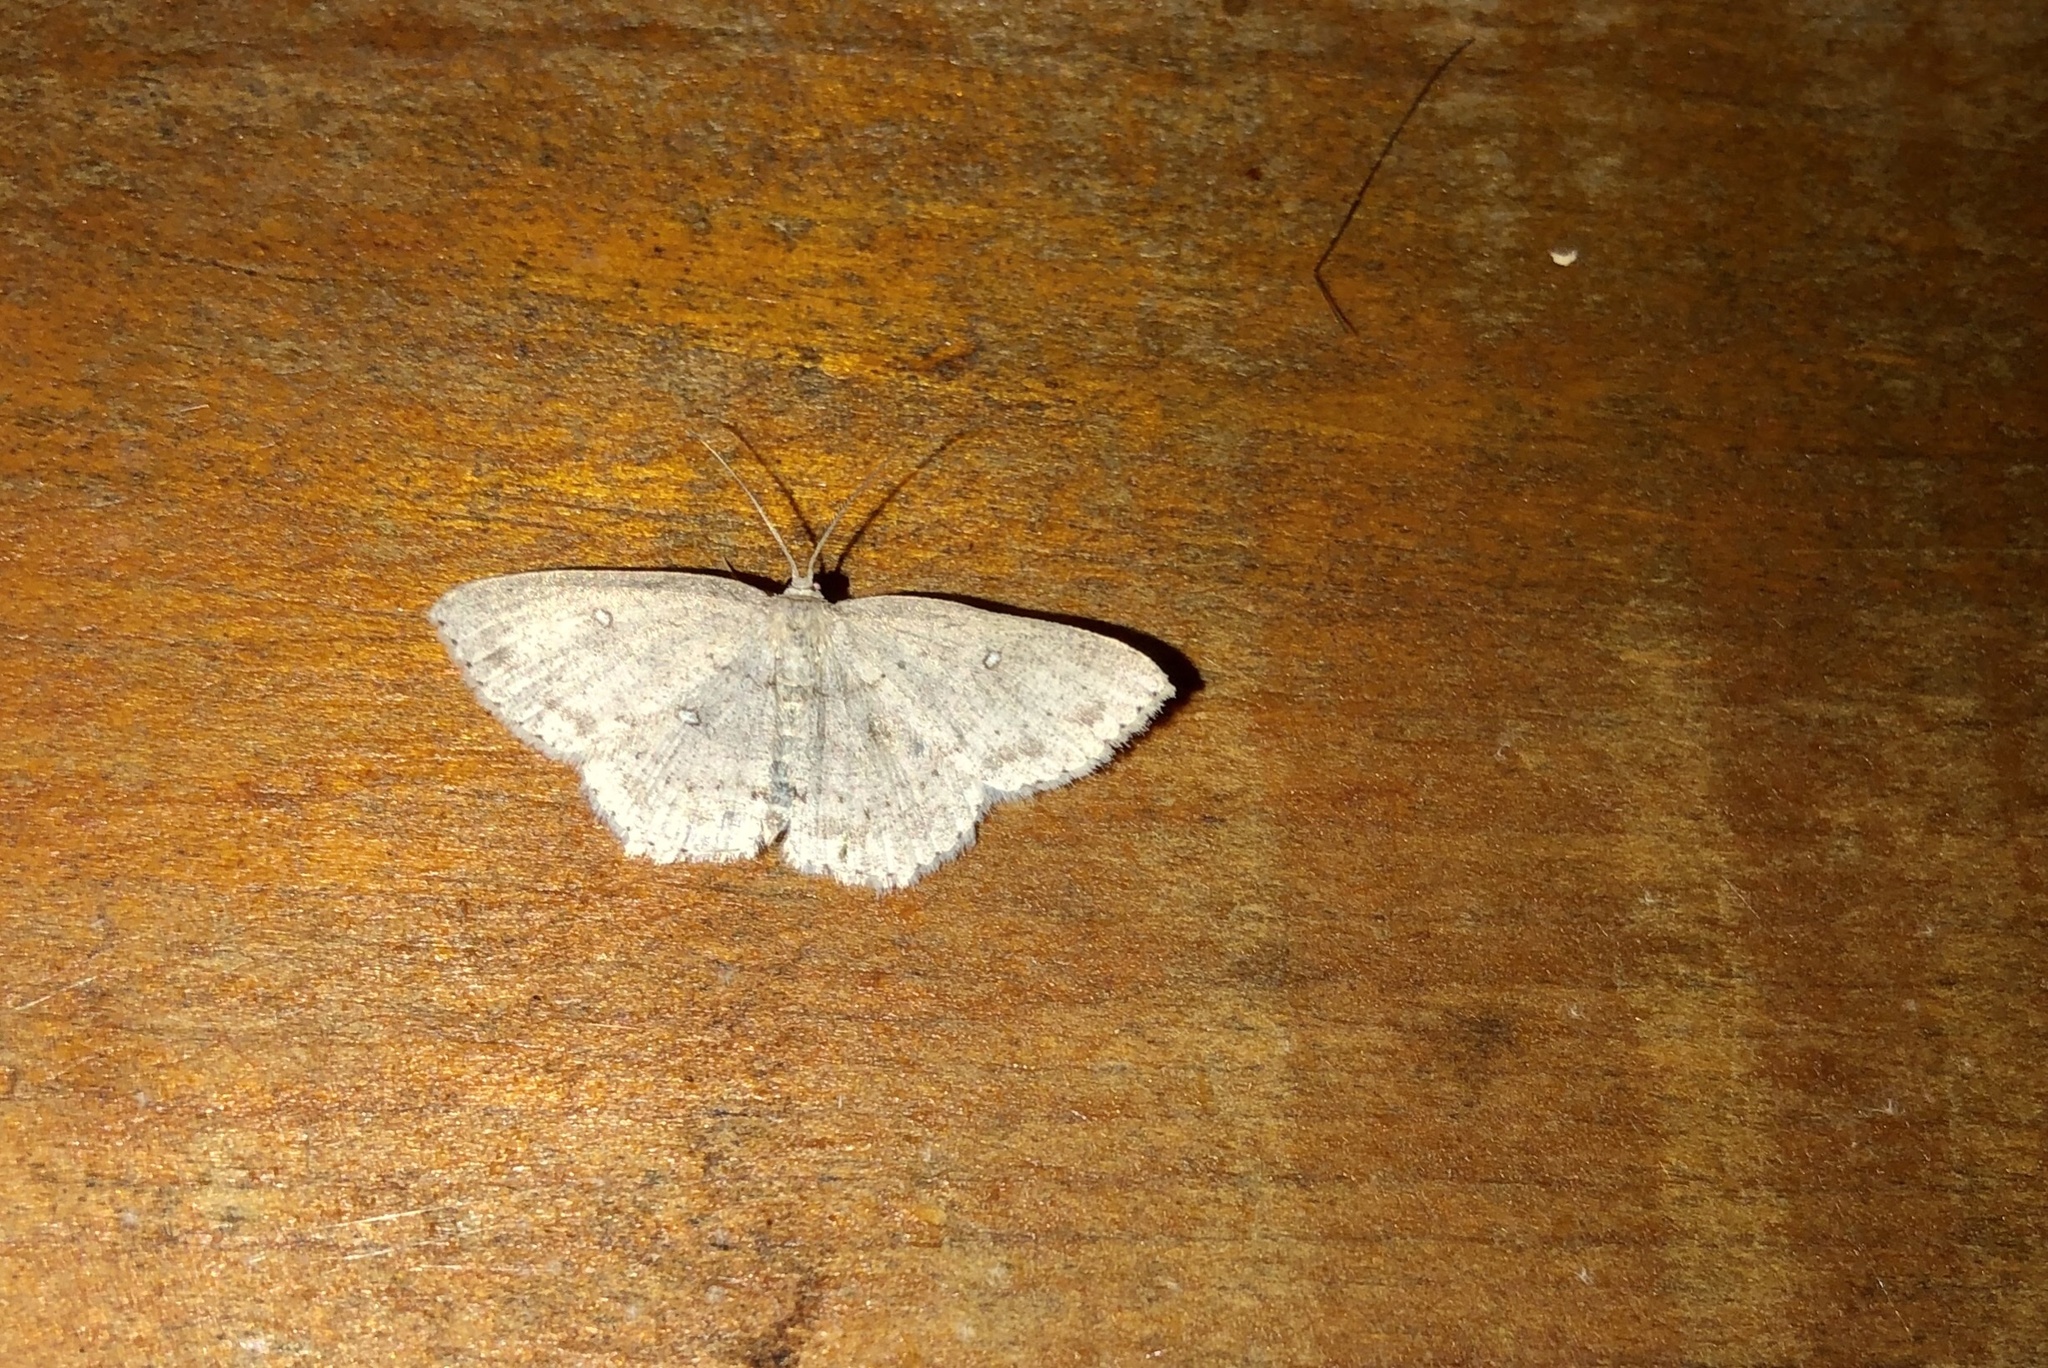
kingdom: Animalia
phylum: Arthropoda
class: Insecta
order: Lepidoptera
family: Geometridae
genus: Cyclophora
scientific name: Cyclophora pendulinaria
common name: Sweet fern geometer
